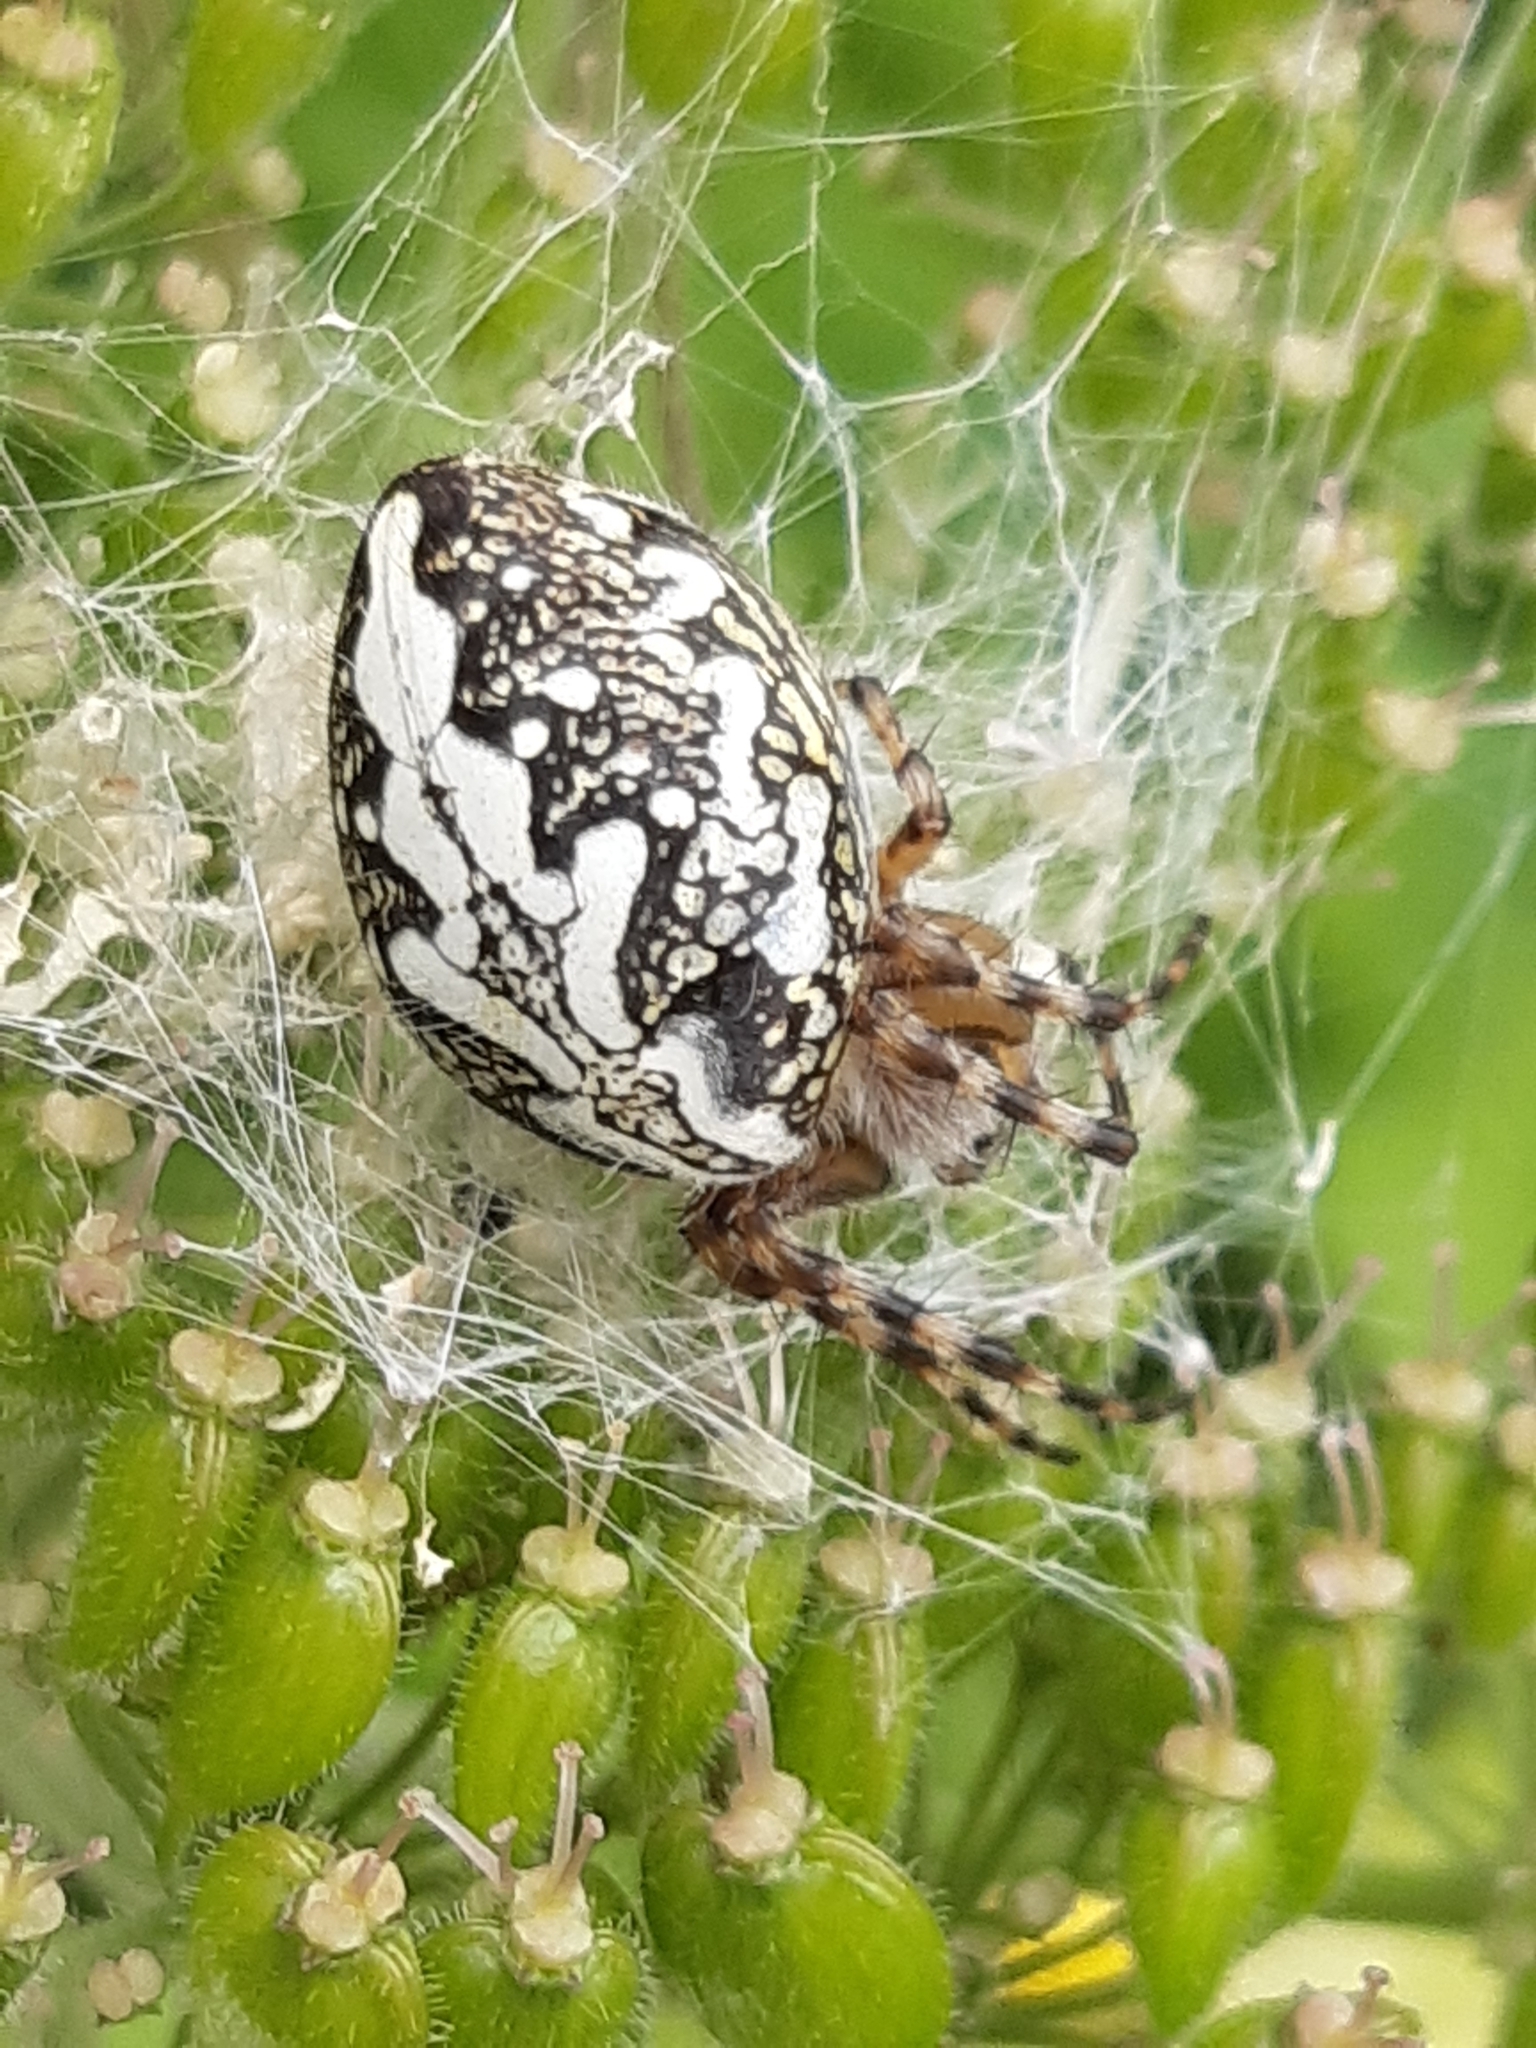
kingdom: Animalia
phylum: Arthropoda
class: Arachnida
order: Araneae
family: Araneidae
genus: Aculepeira
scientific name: Aculepeira ceropegia
